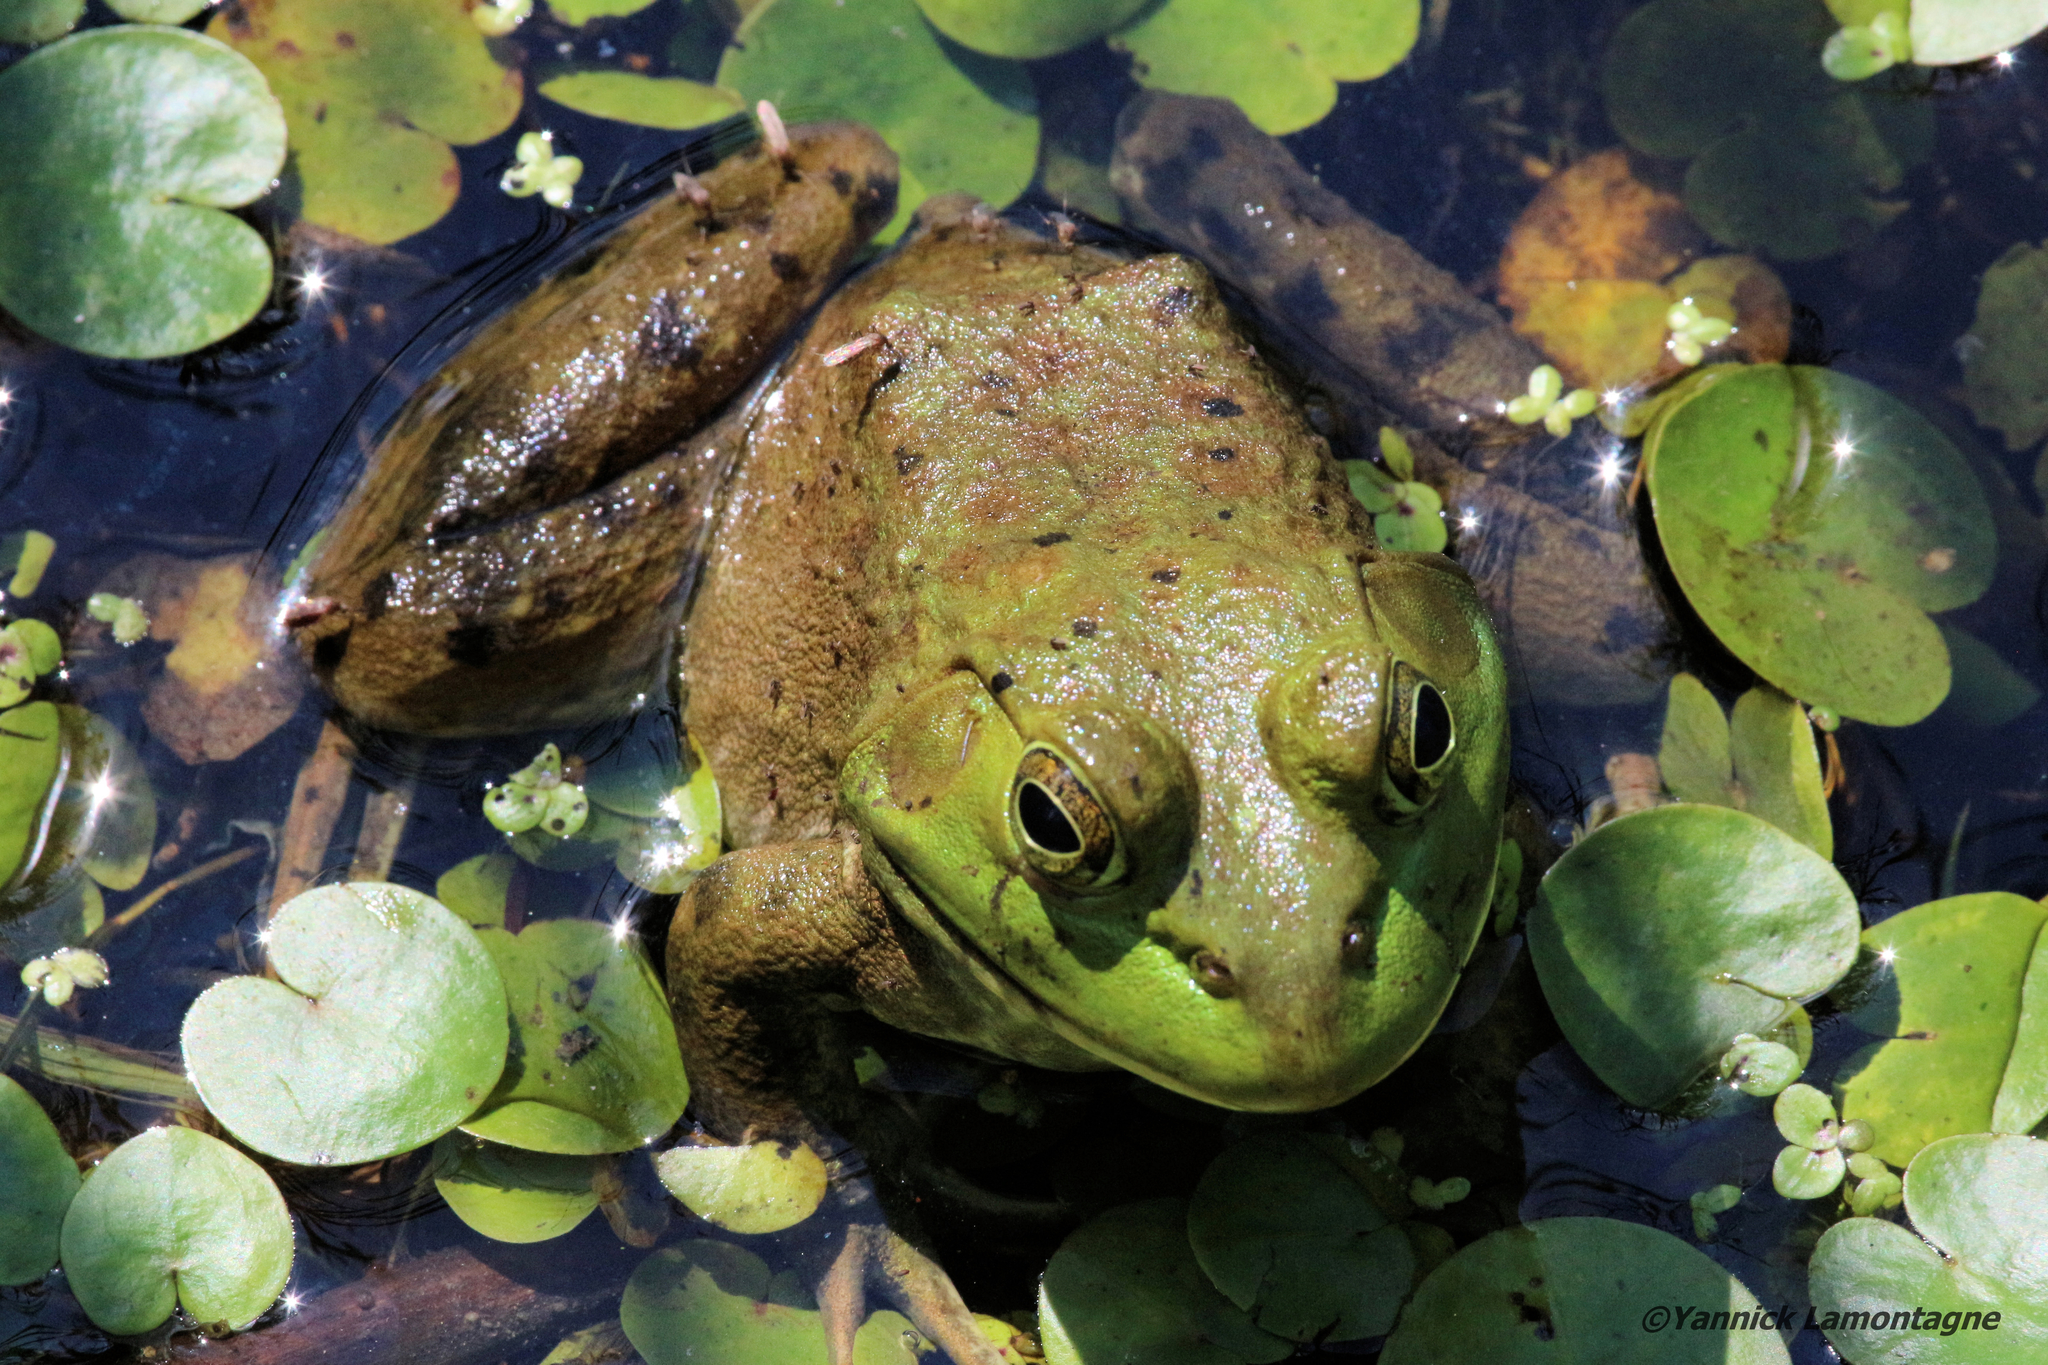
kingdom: Animalia
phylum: Chordata
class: Amphibia
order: Anura
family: Ranidae
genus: Lithobates
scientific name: Lithobates catesbeianus
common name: American bullfrog
